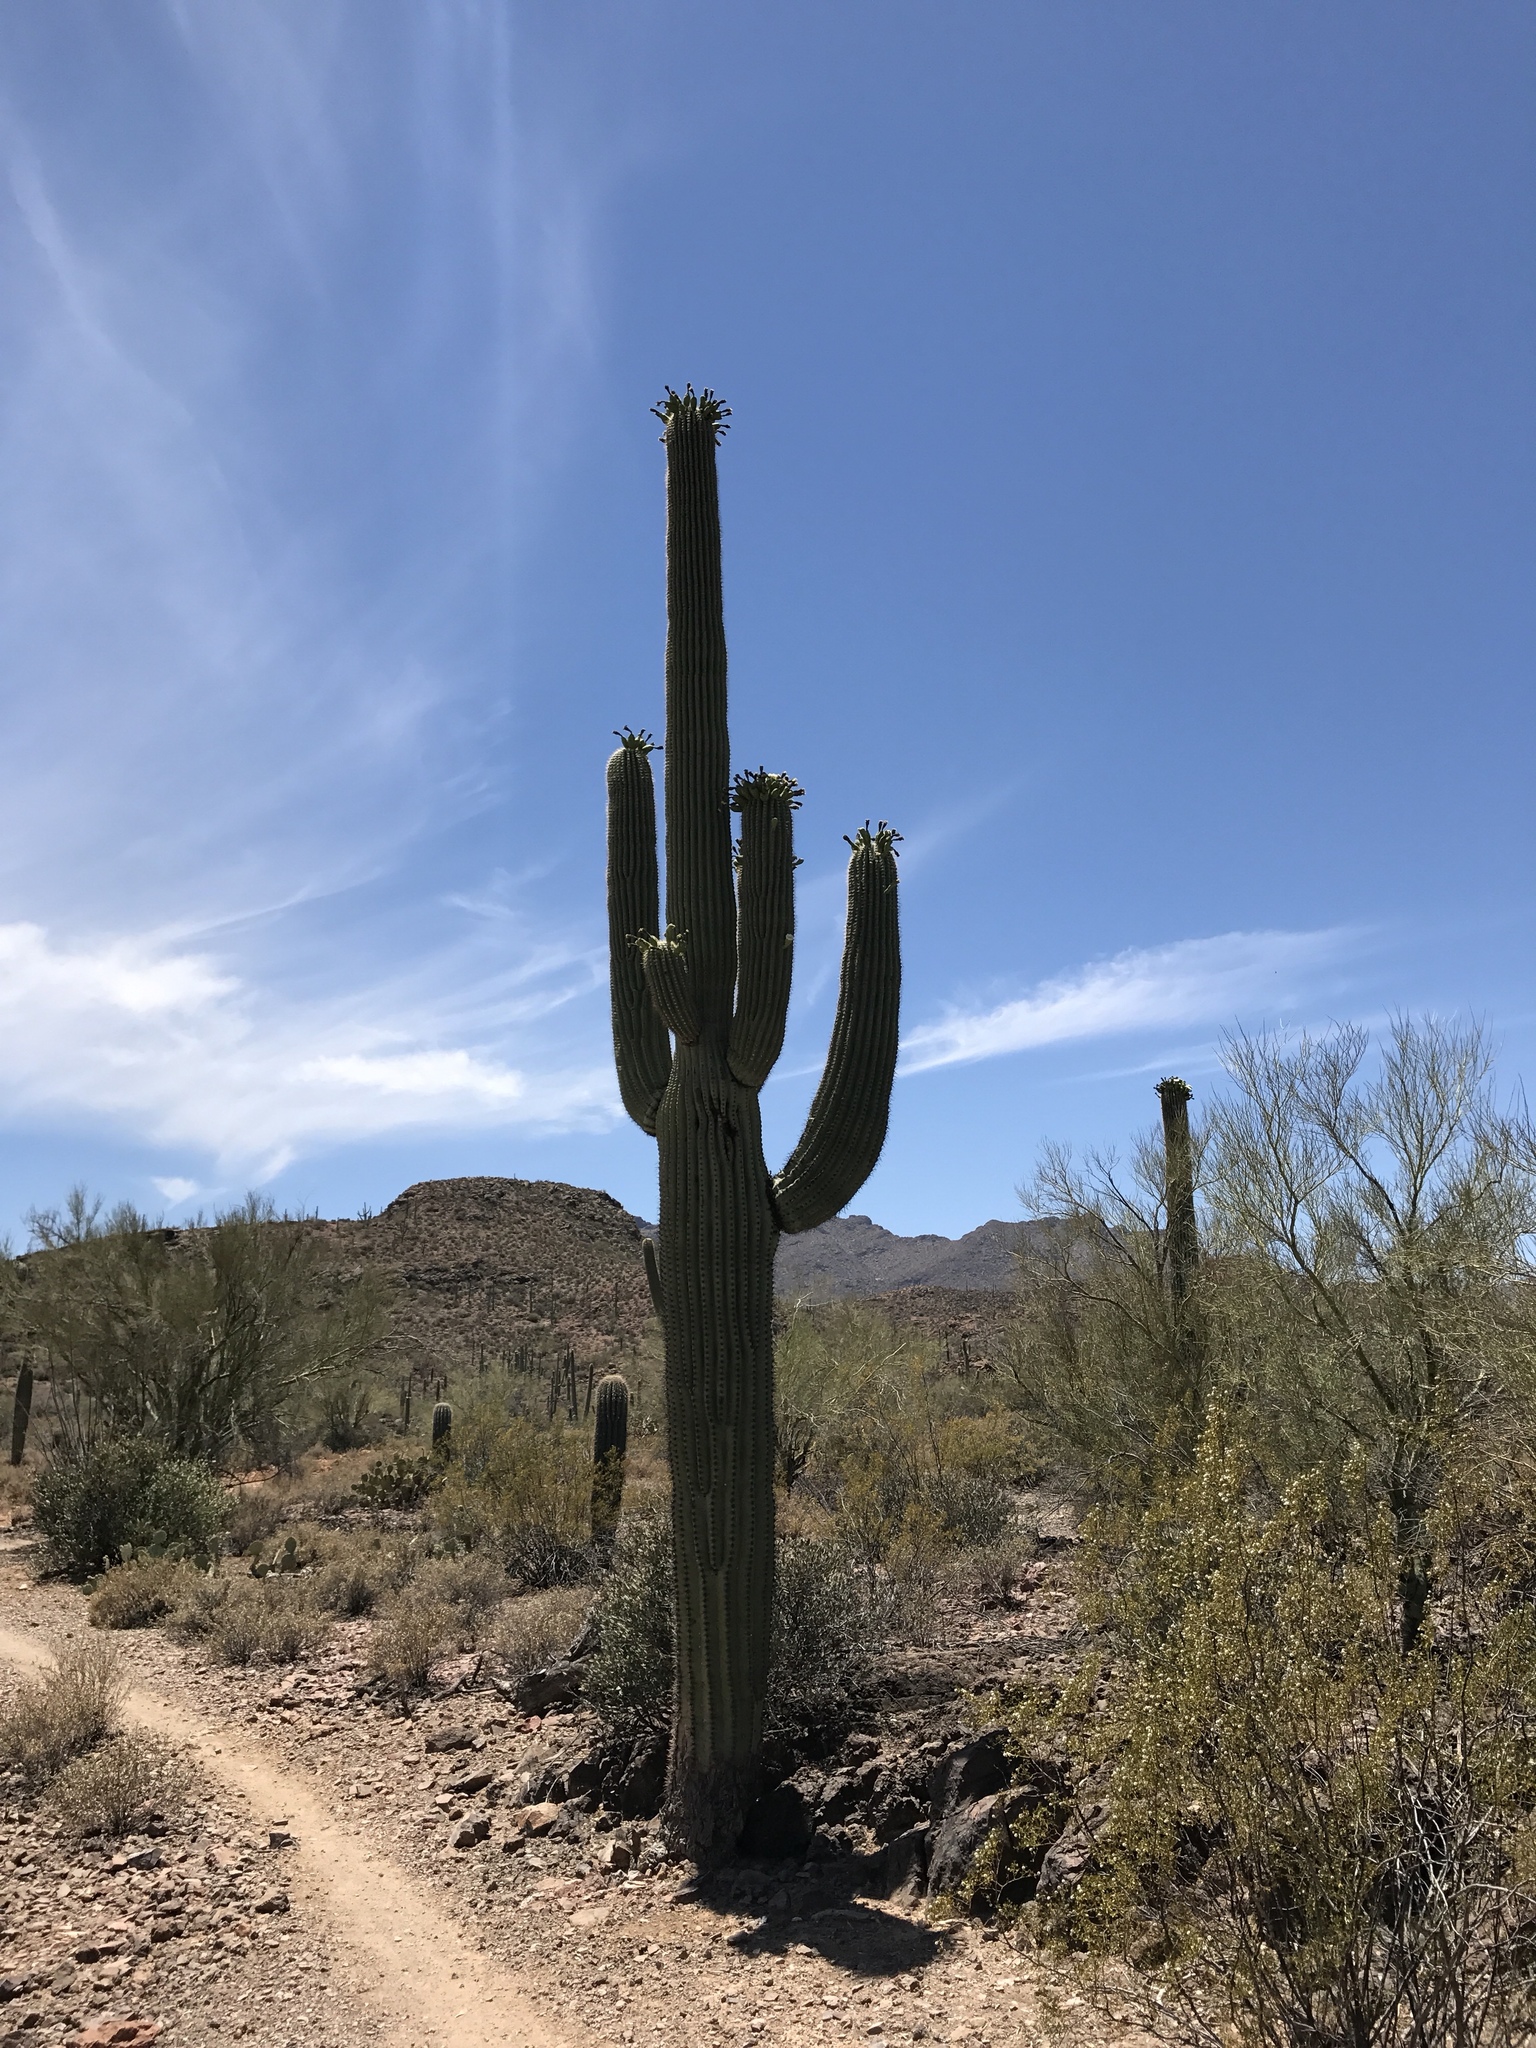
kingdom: Plantae
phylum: Tracheophyta
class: Magnoliopsida
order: Caryophyllales
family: Cactaceae
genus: Carnegiea
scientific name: Carnegiea gigantea
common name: Saguaro
